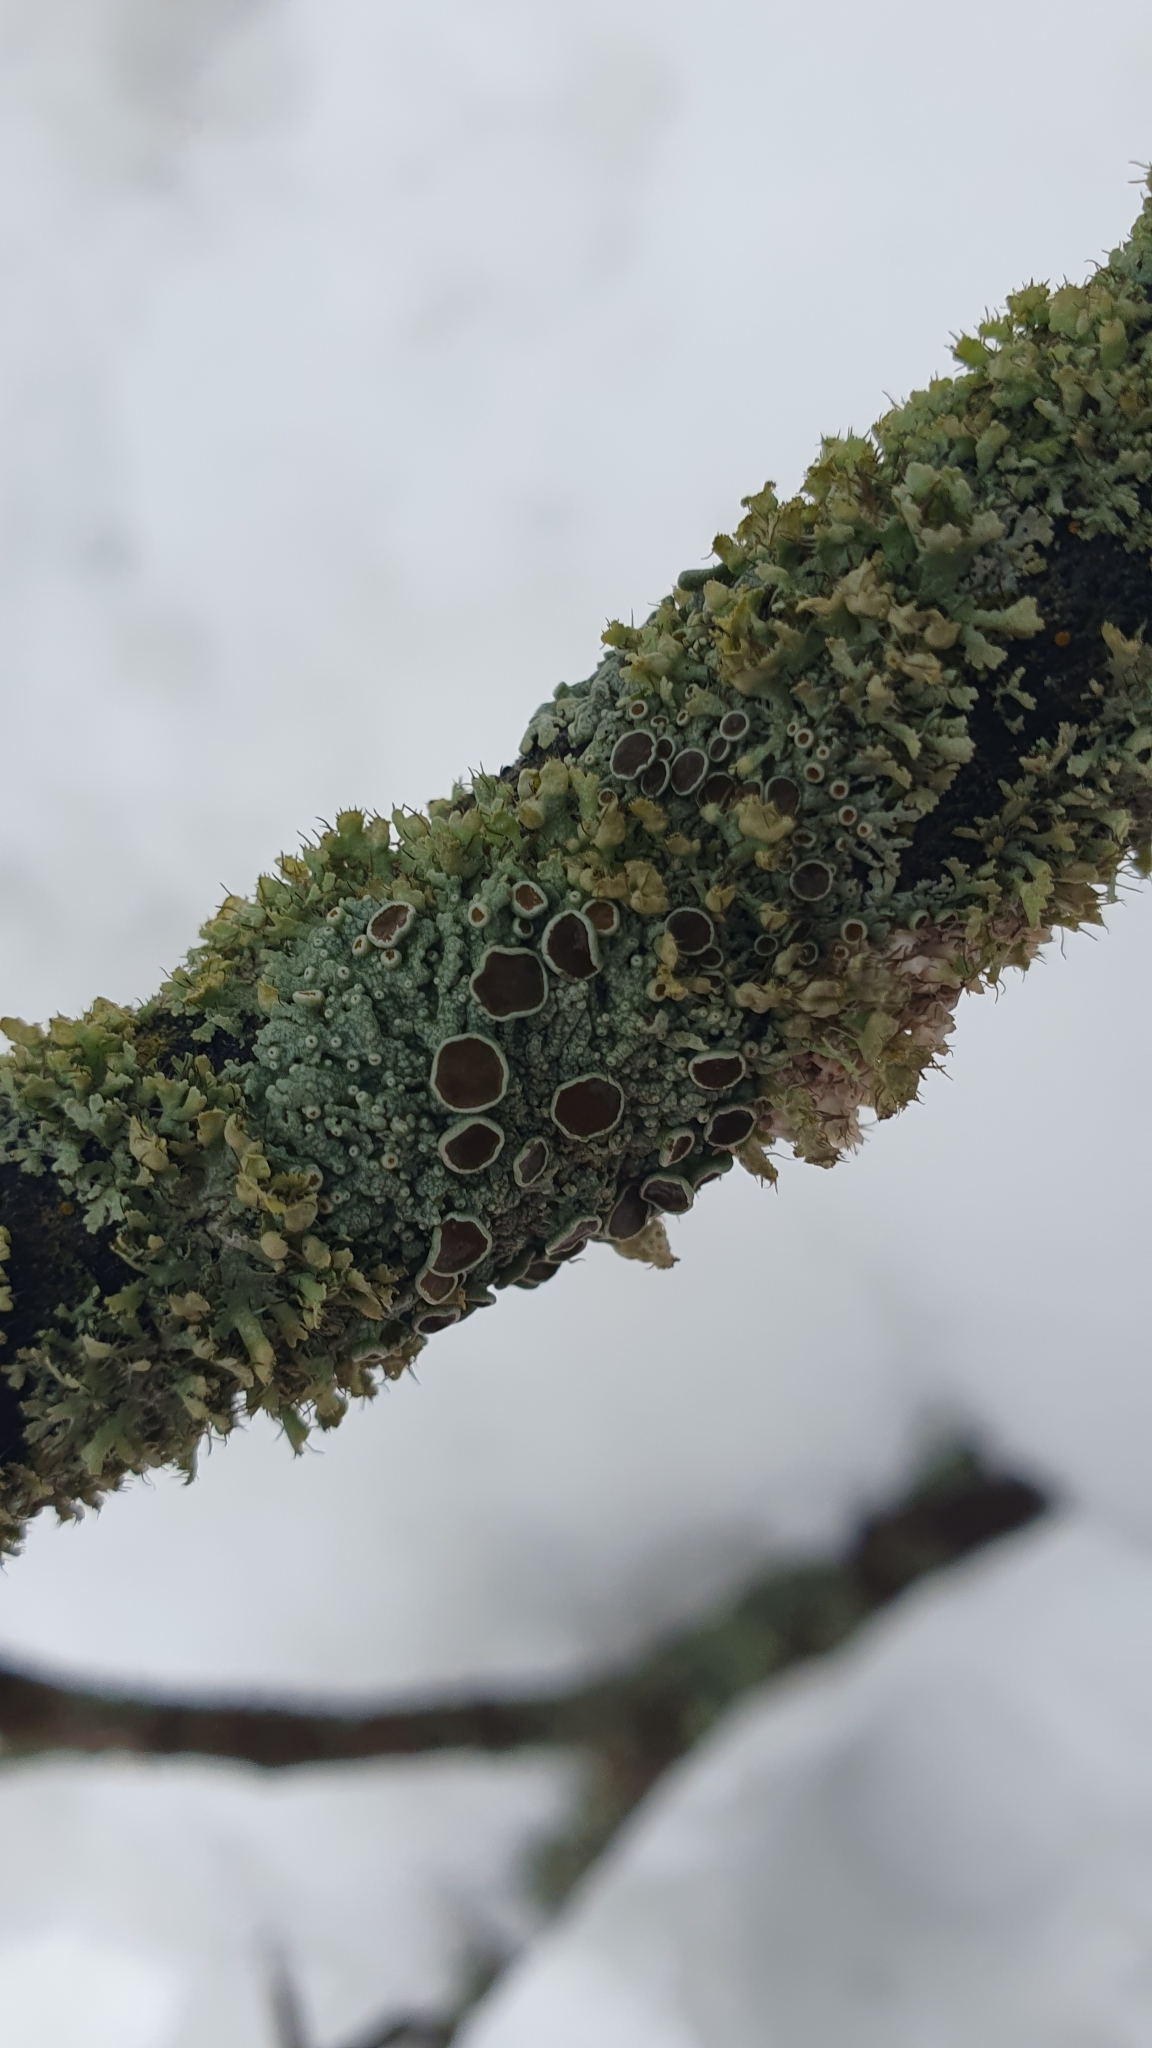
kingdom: Fungi
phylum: Ascomycota
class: Lecanoromycetes
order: Caliciales
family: Physciaceae
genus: Physcia
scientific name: Physcia stellaris
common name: Star rosette lichen
